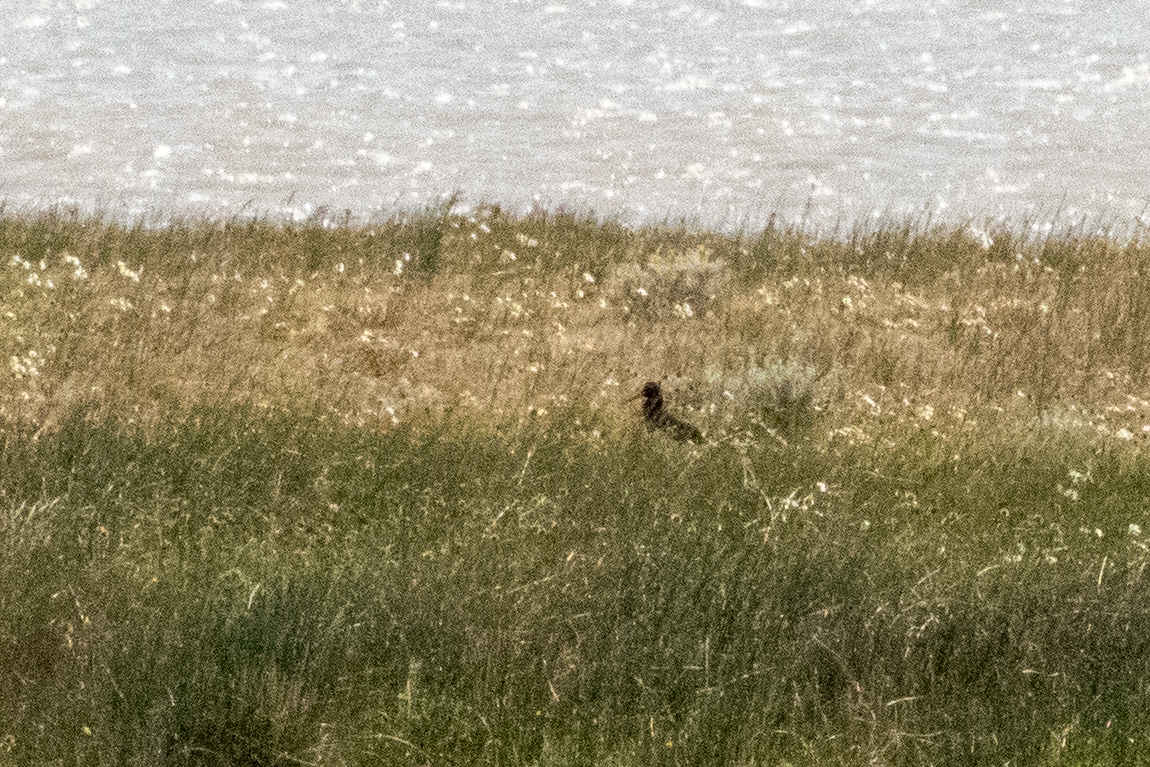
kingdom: Animalia
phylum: Chordata
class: Aves
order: Charadriiformes
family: Haematopodidae
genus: Haematopus
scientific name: Haematopus leucopodus
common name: Magellanic oystercatcher
